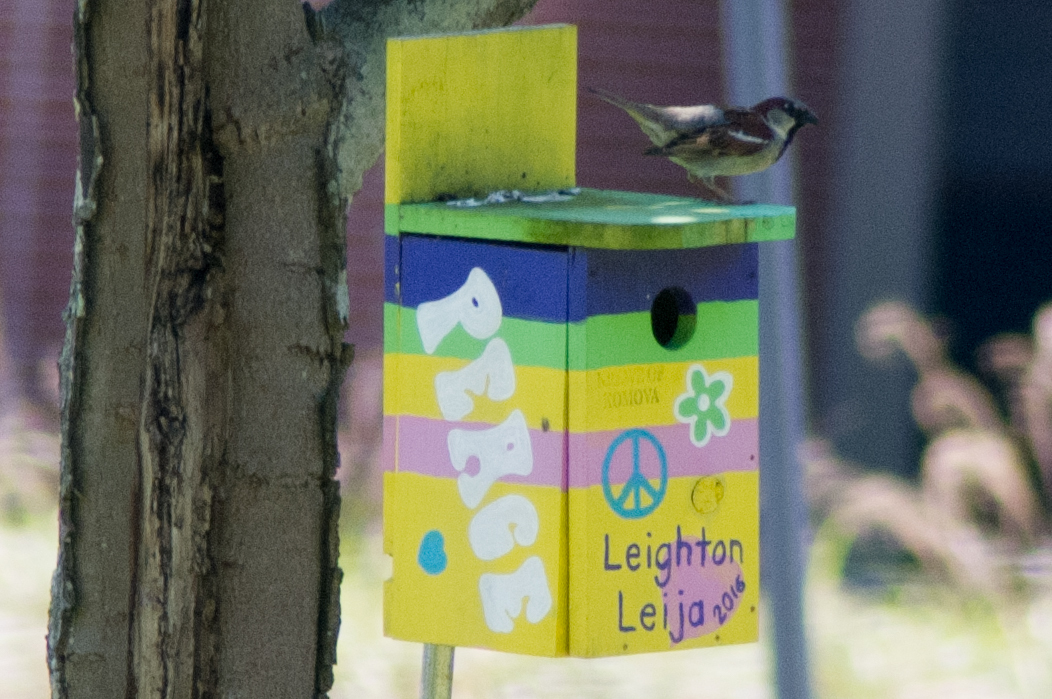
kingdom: Animalia
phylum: Chordata
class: Aves
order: Passeriformes
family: Passeridae
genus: Passer
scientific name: Passer domesticus
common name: House sparrow
